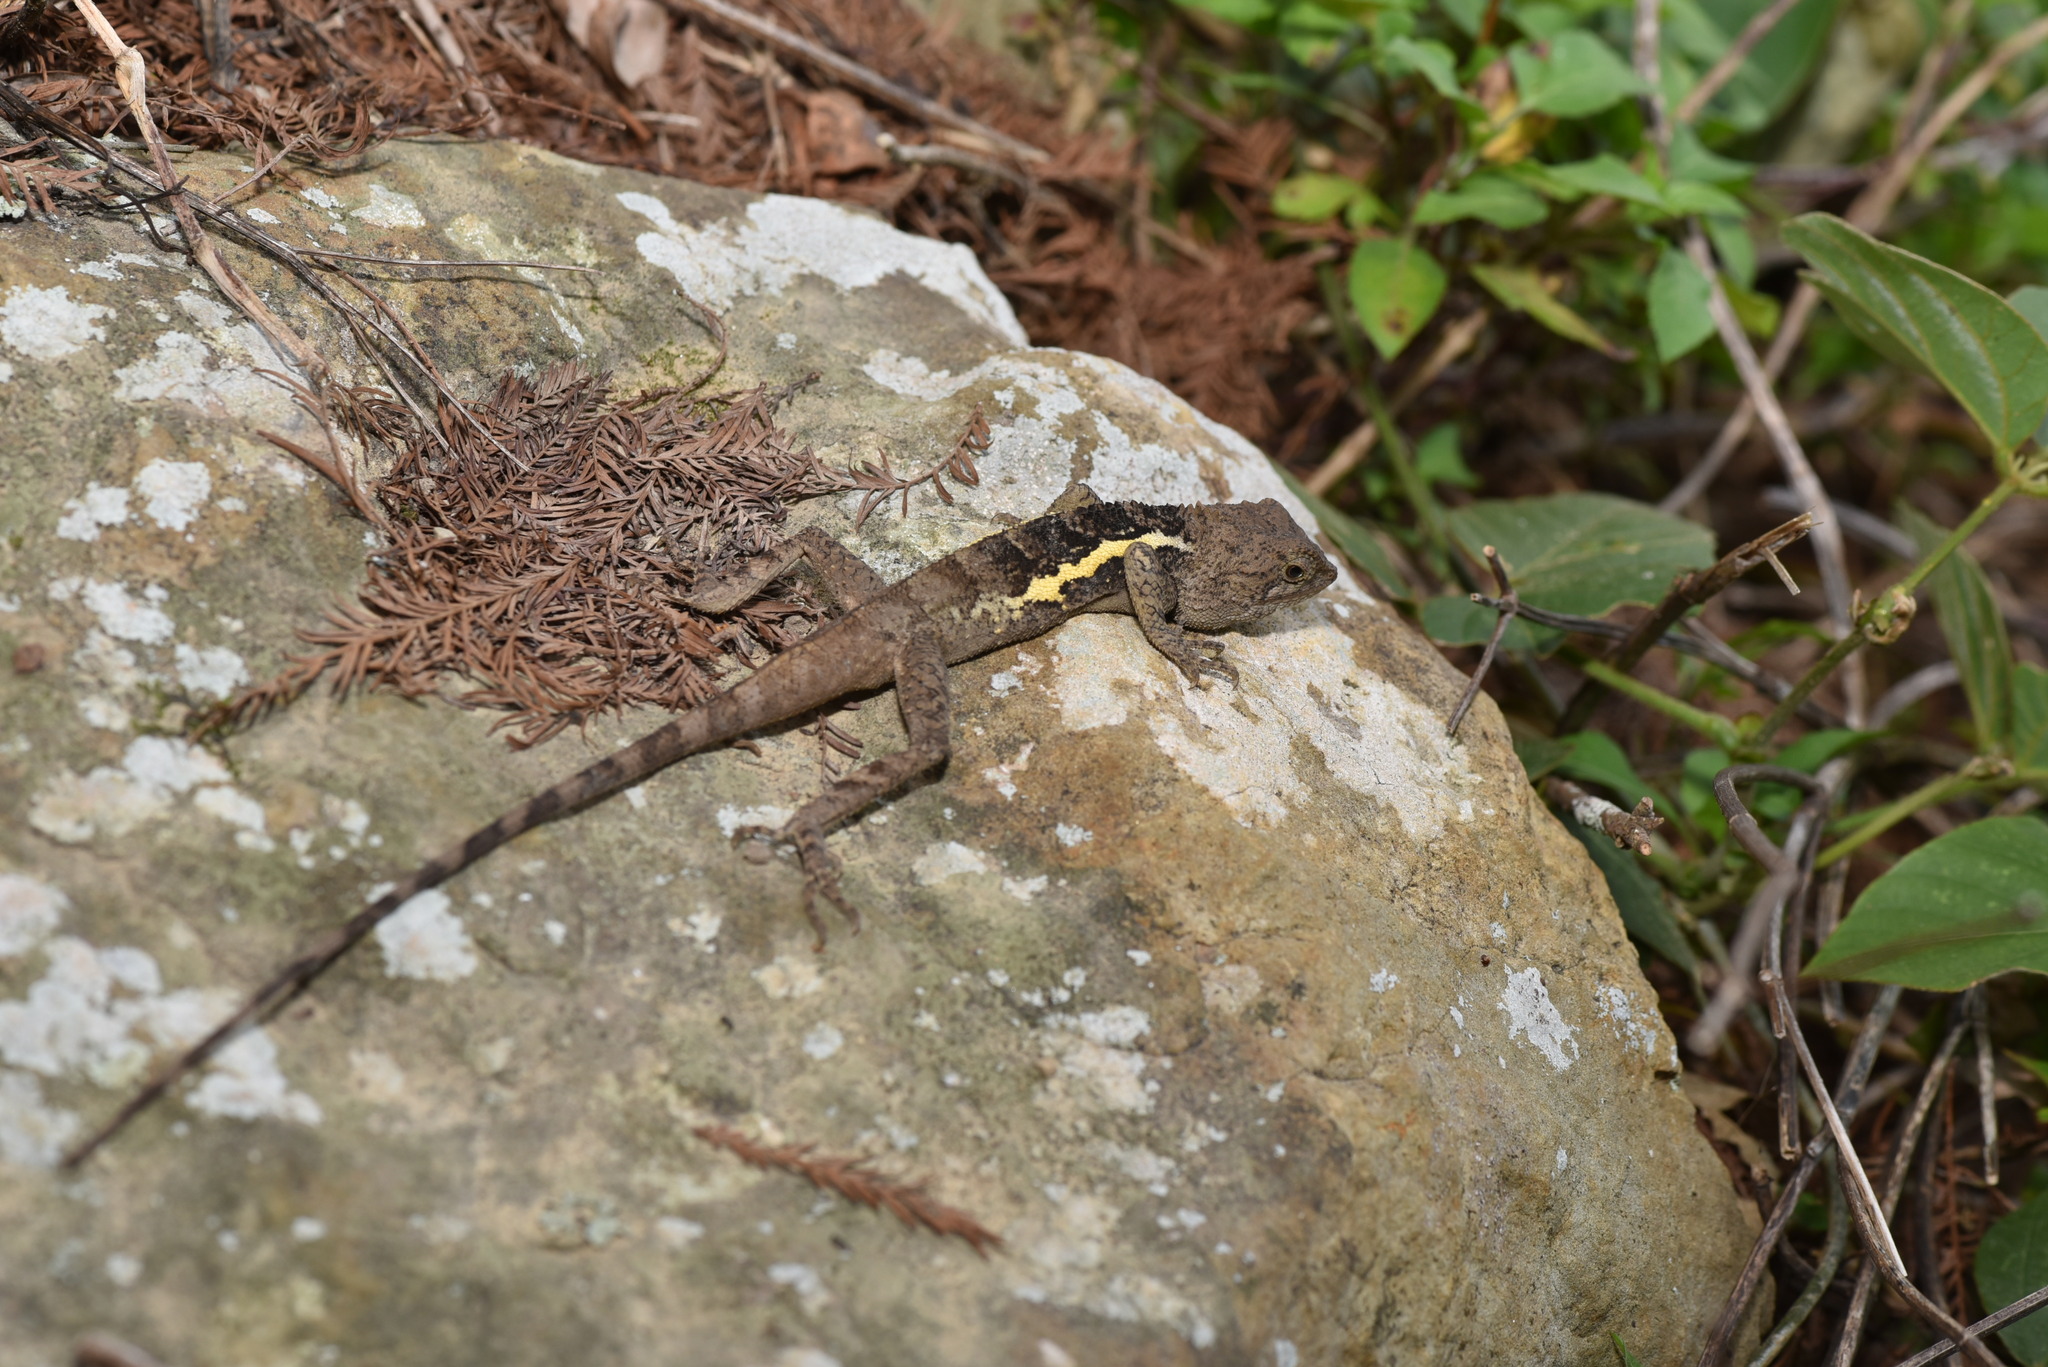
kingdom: Animalia
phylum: Chordata
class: Squamata
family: Agamidae
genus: Diploderma
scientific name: Diploderma swinhonis
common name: Taiwan japalure
